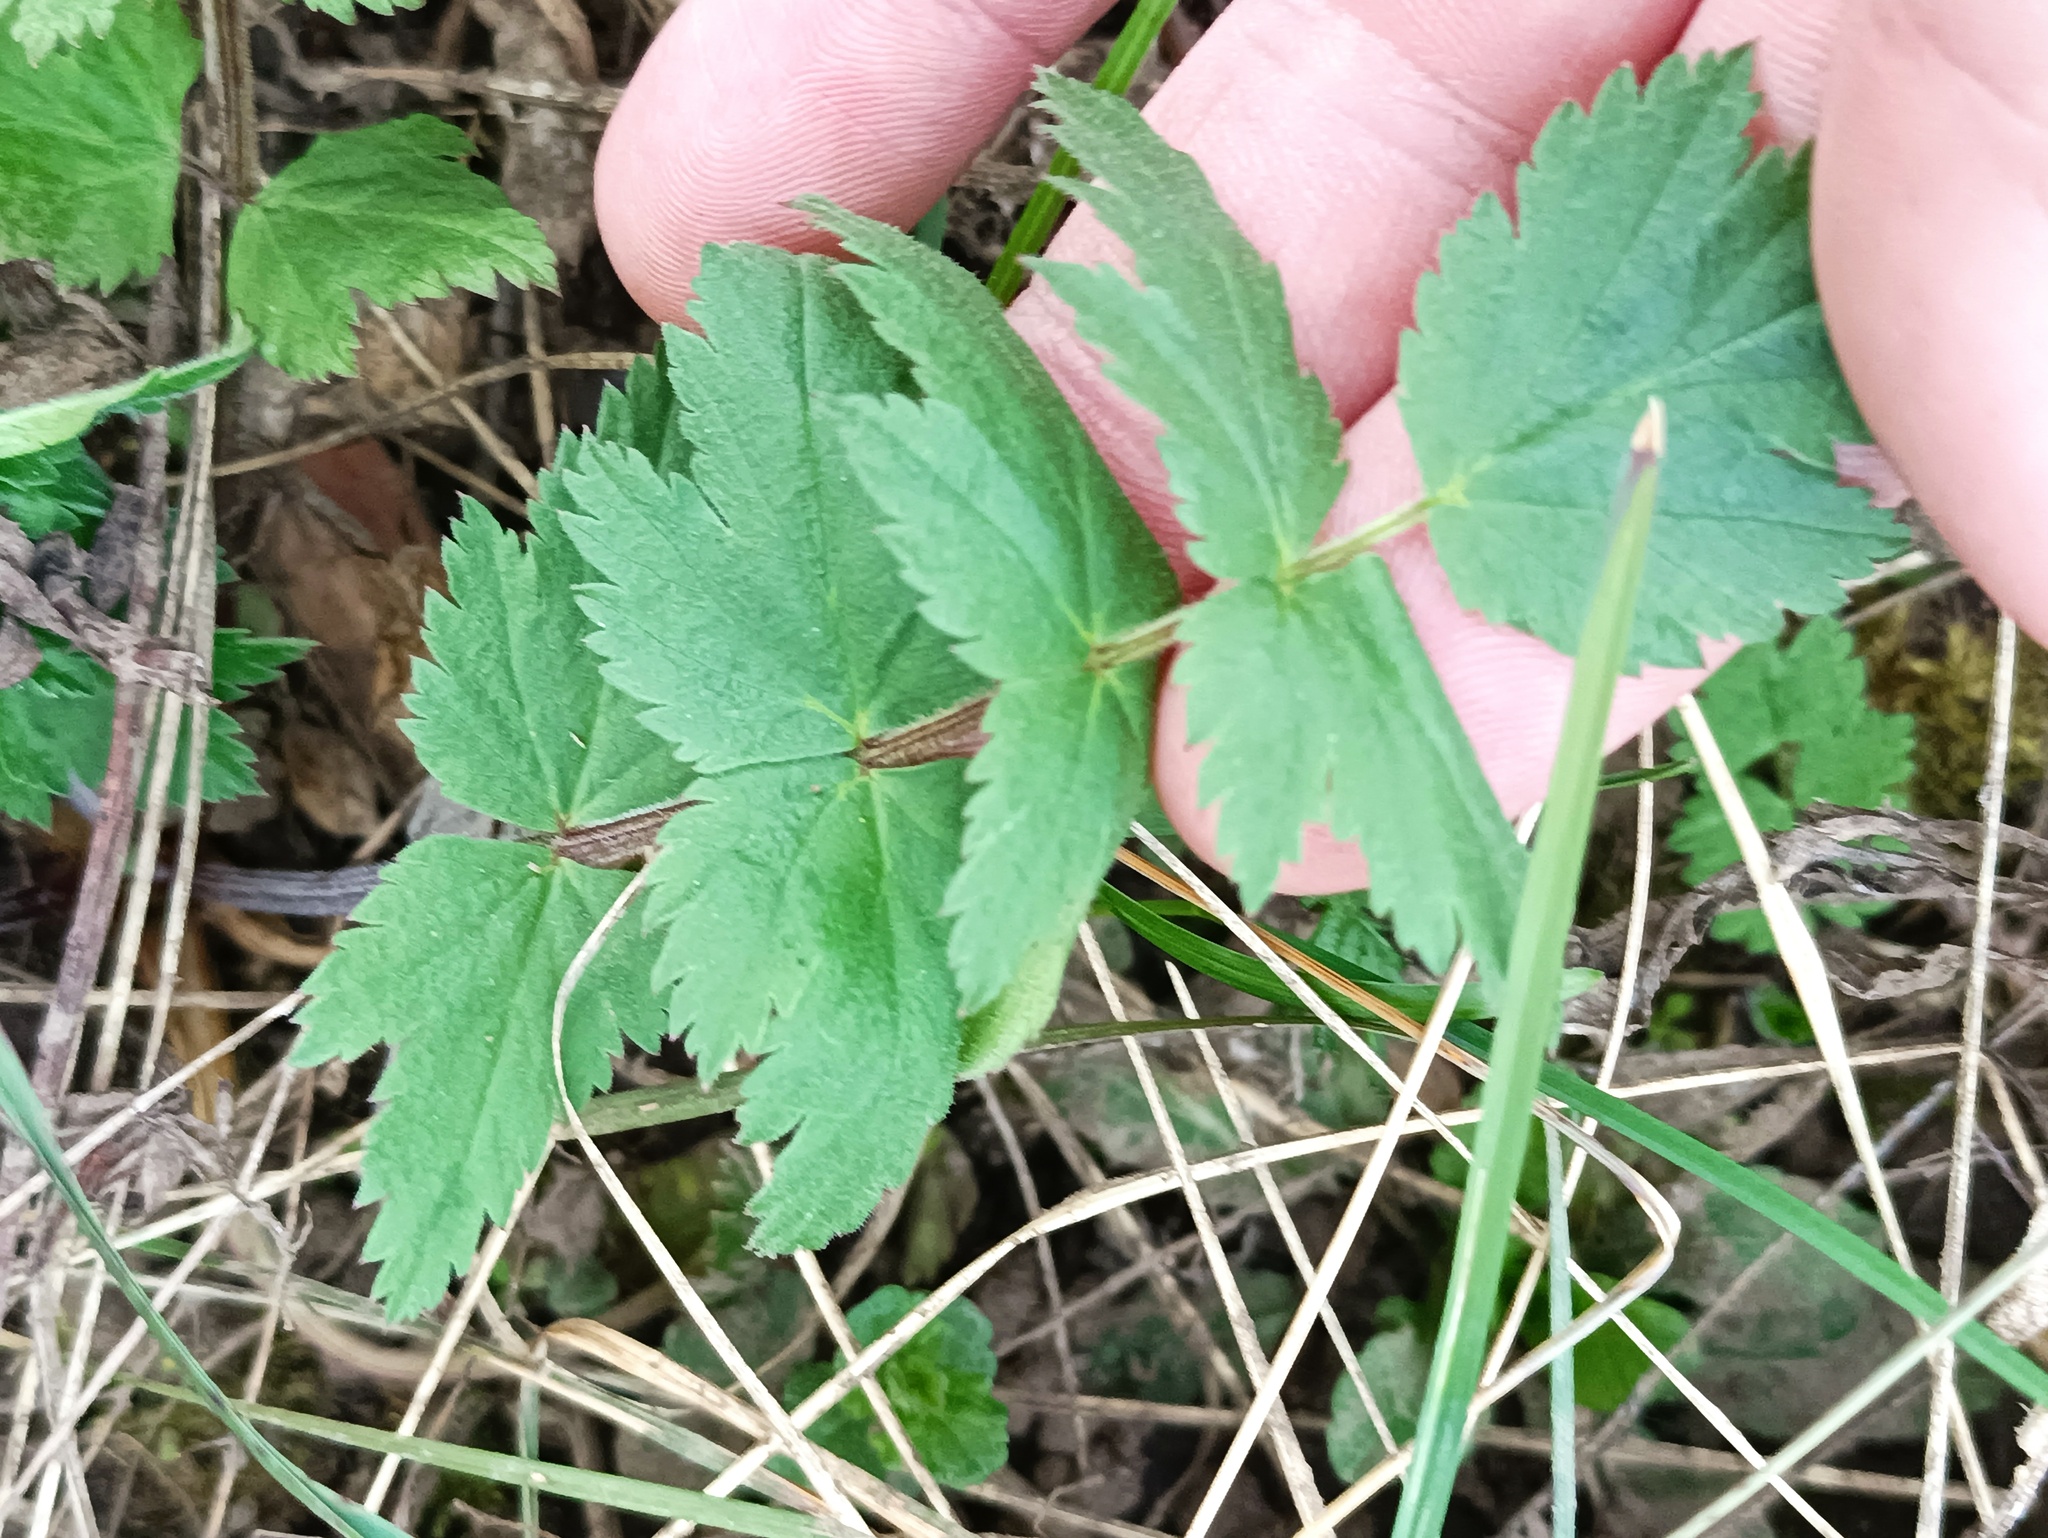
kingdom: Plantae
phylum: Tracheophyta
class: Magnoliopsida
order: Apiales
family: Apiaceae
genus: Pimpinella
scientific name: Pimpinella saxifraga
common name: Burnet-saxifrage
